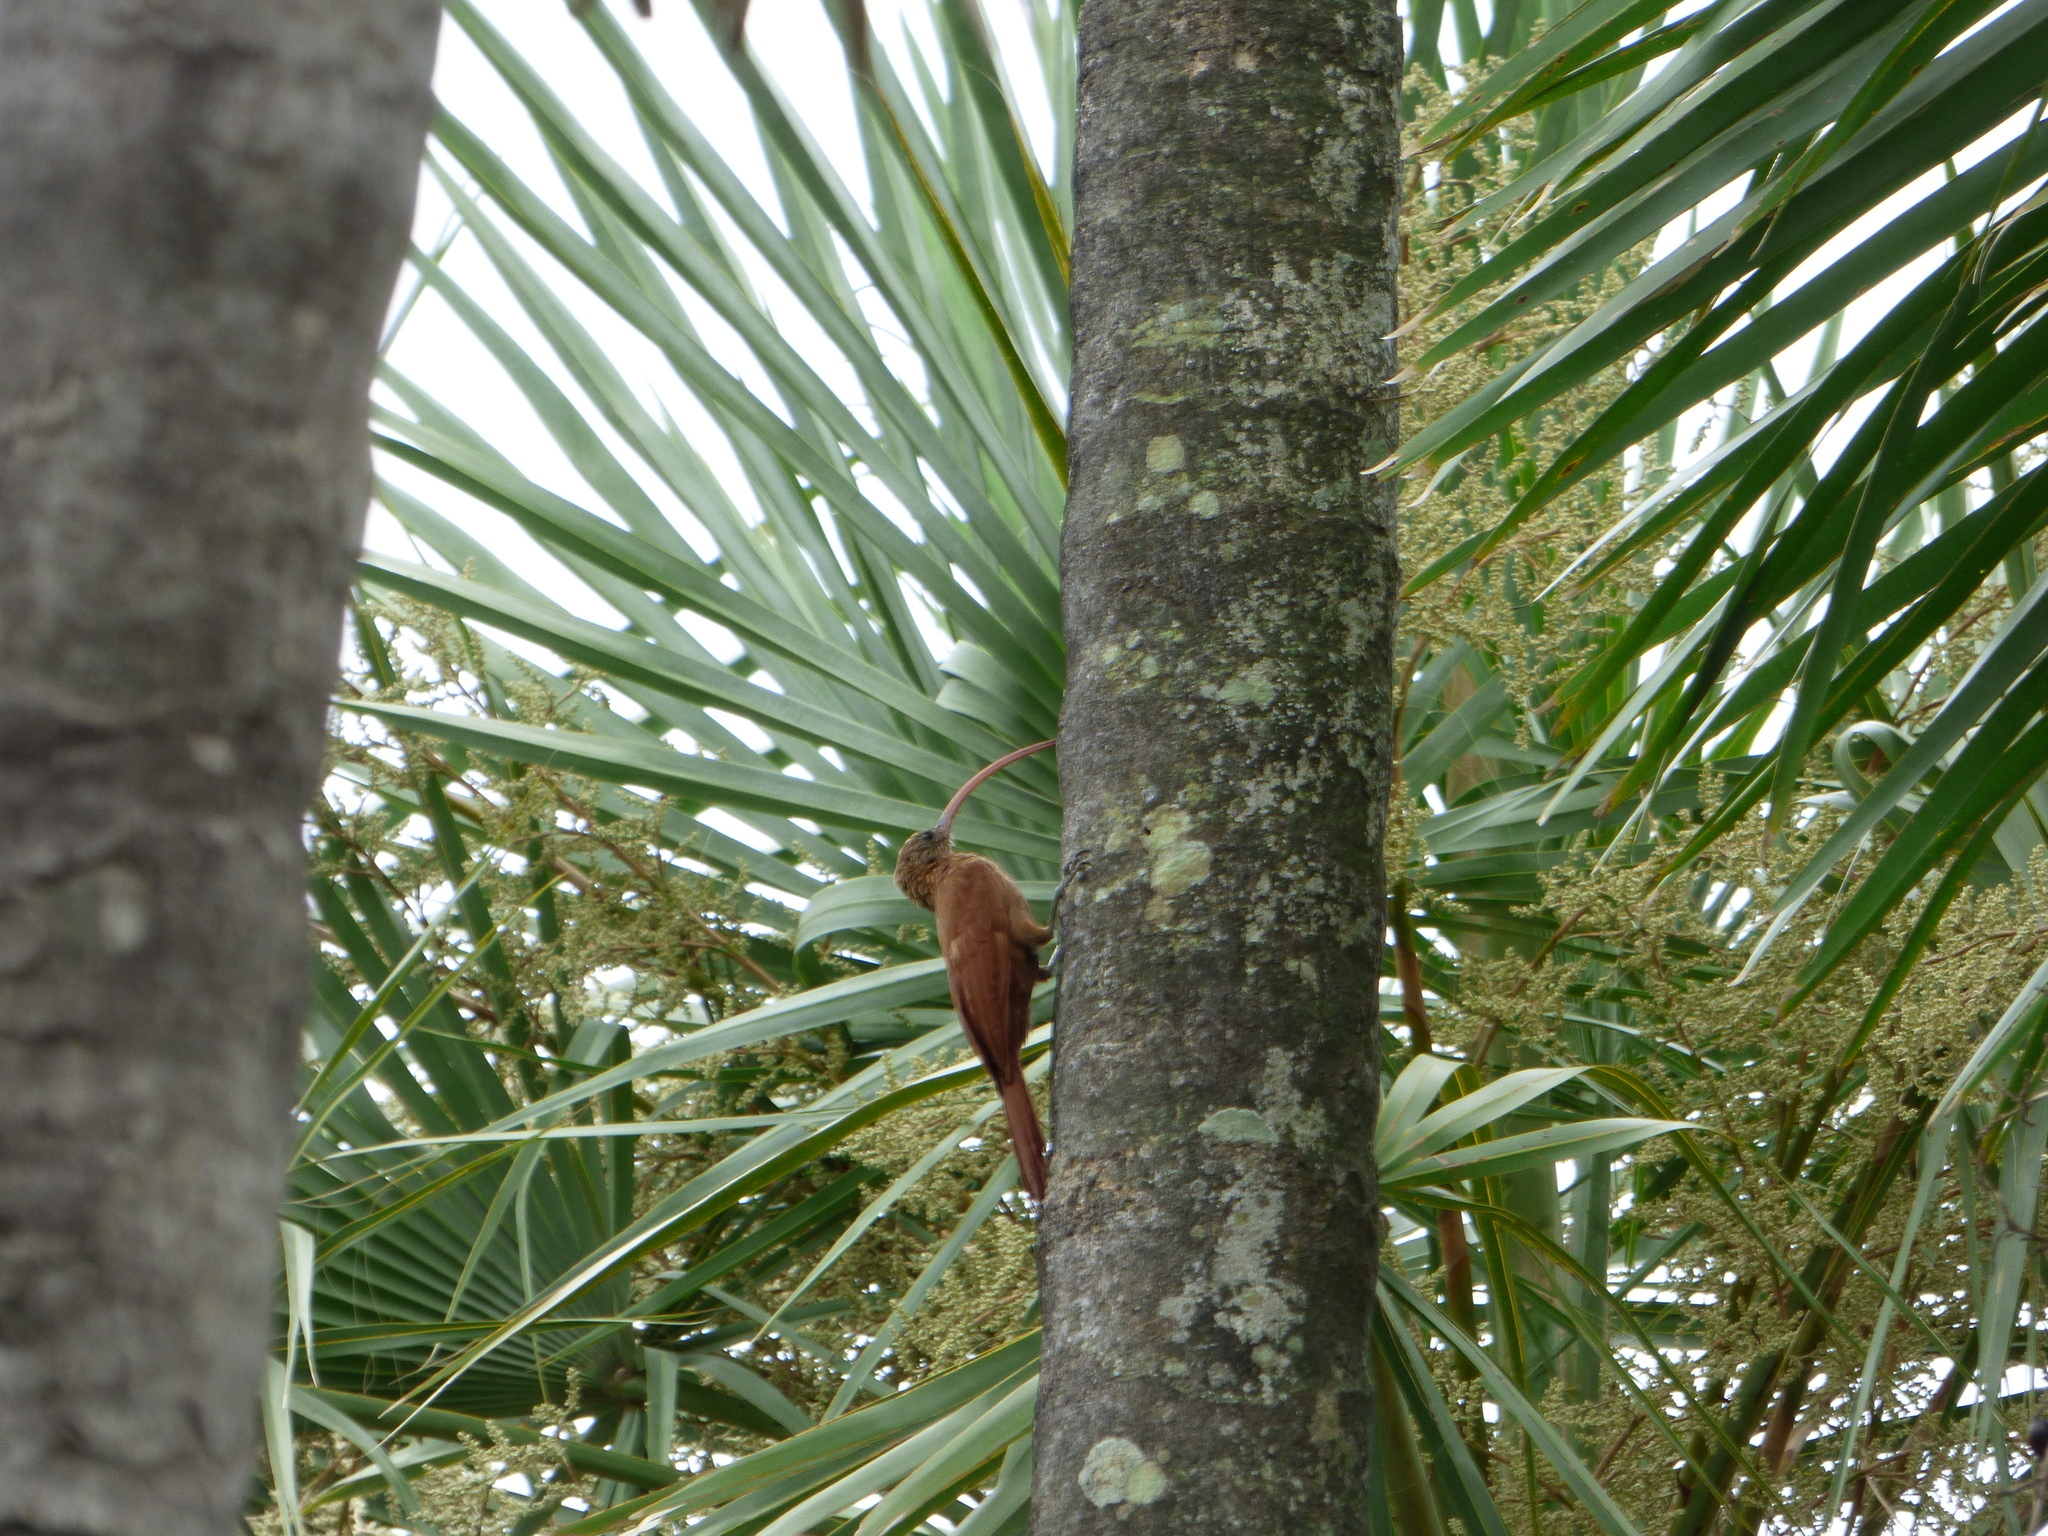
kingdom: Animalia
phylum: Chordata
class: Aves
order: Passeriformes
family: Furnariidae
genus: Campylorhamphus
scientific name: Campylorhamphus trochilirostris
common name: Red-billed scythebill
